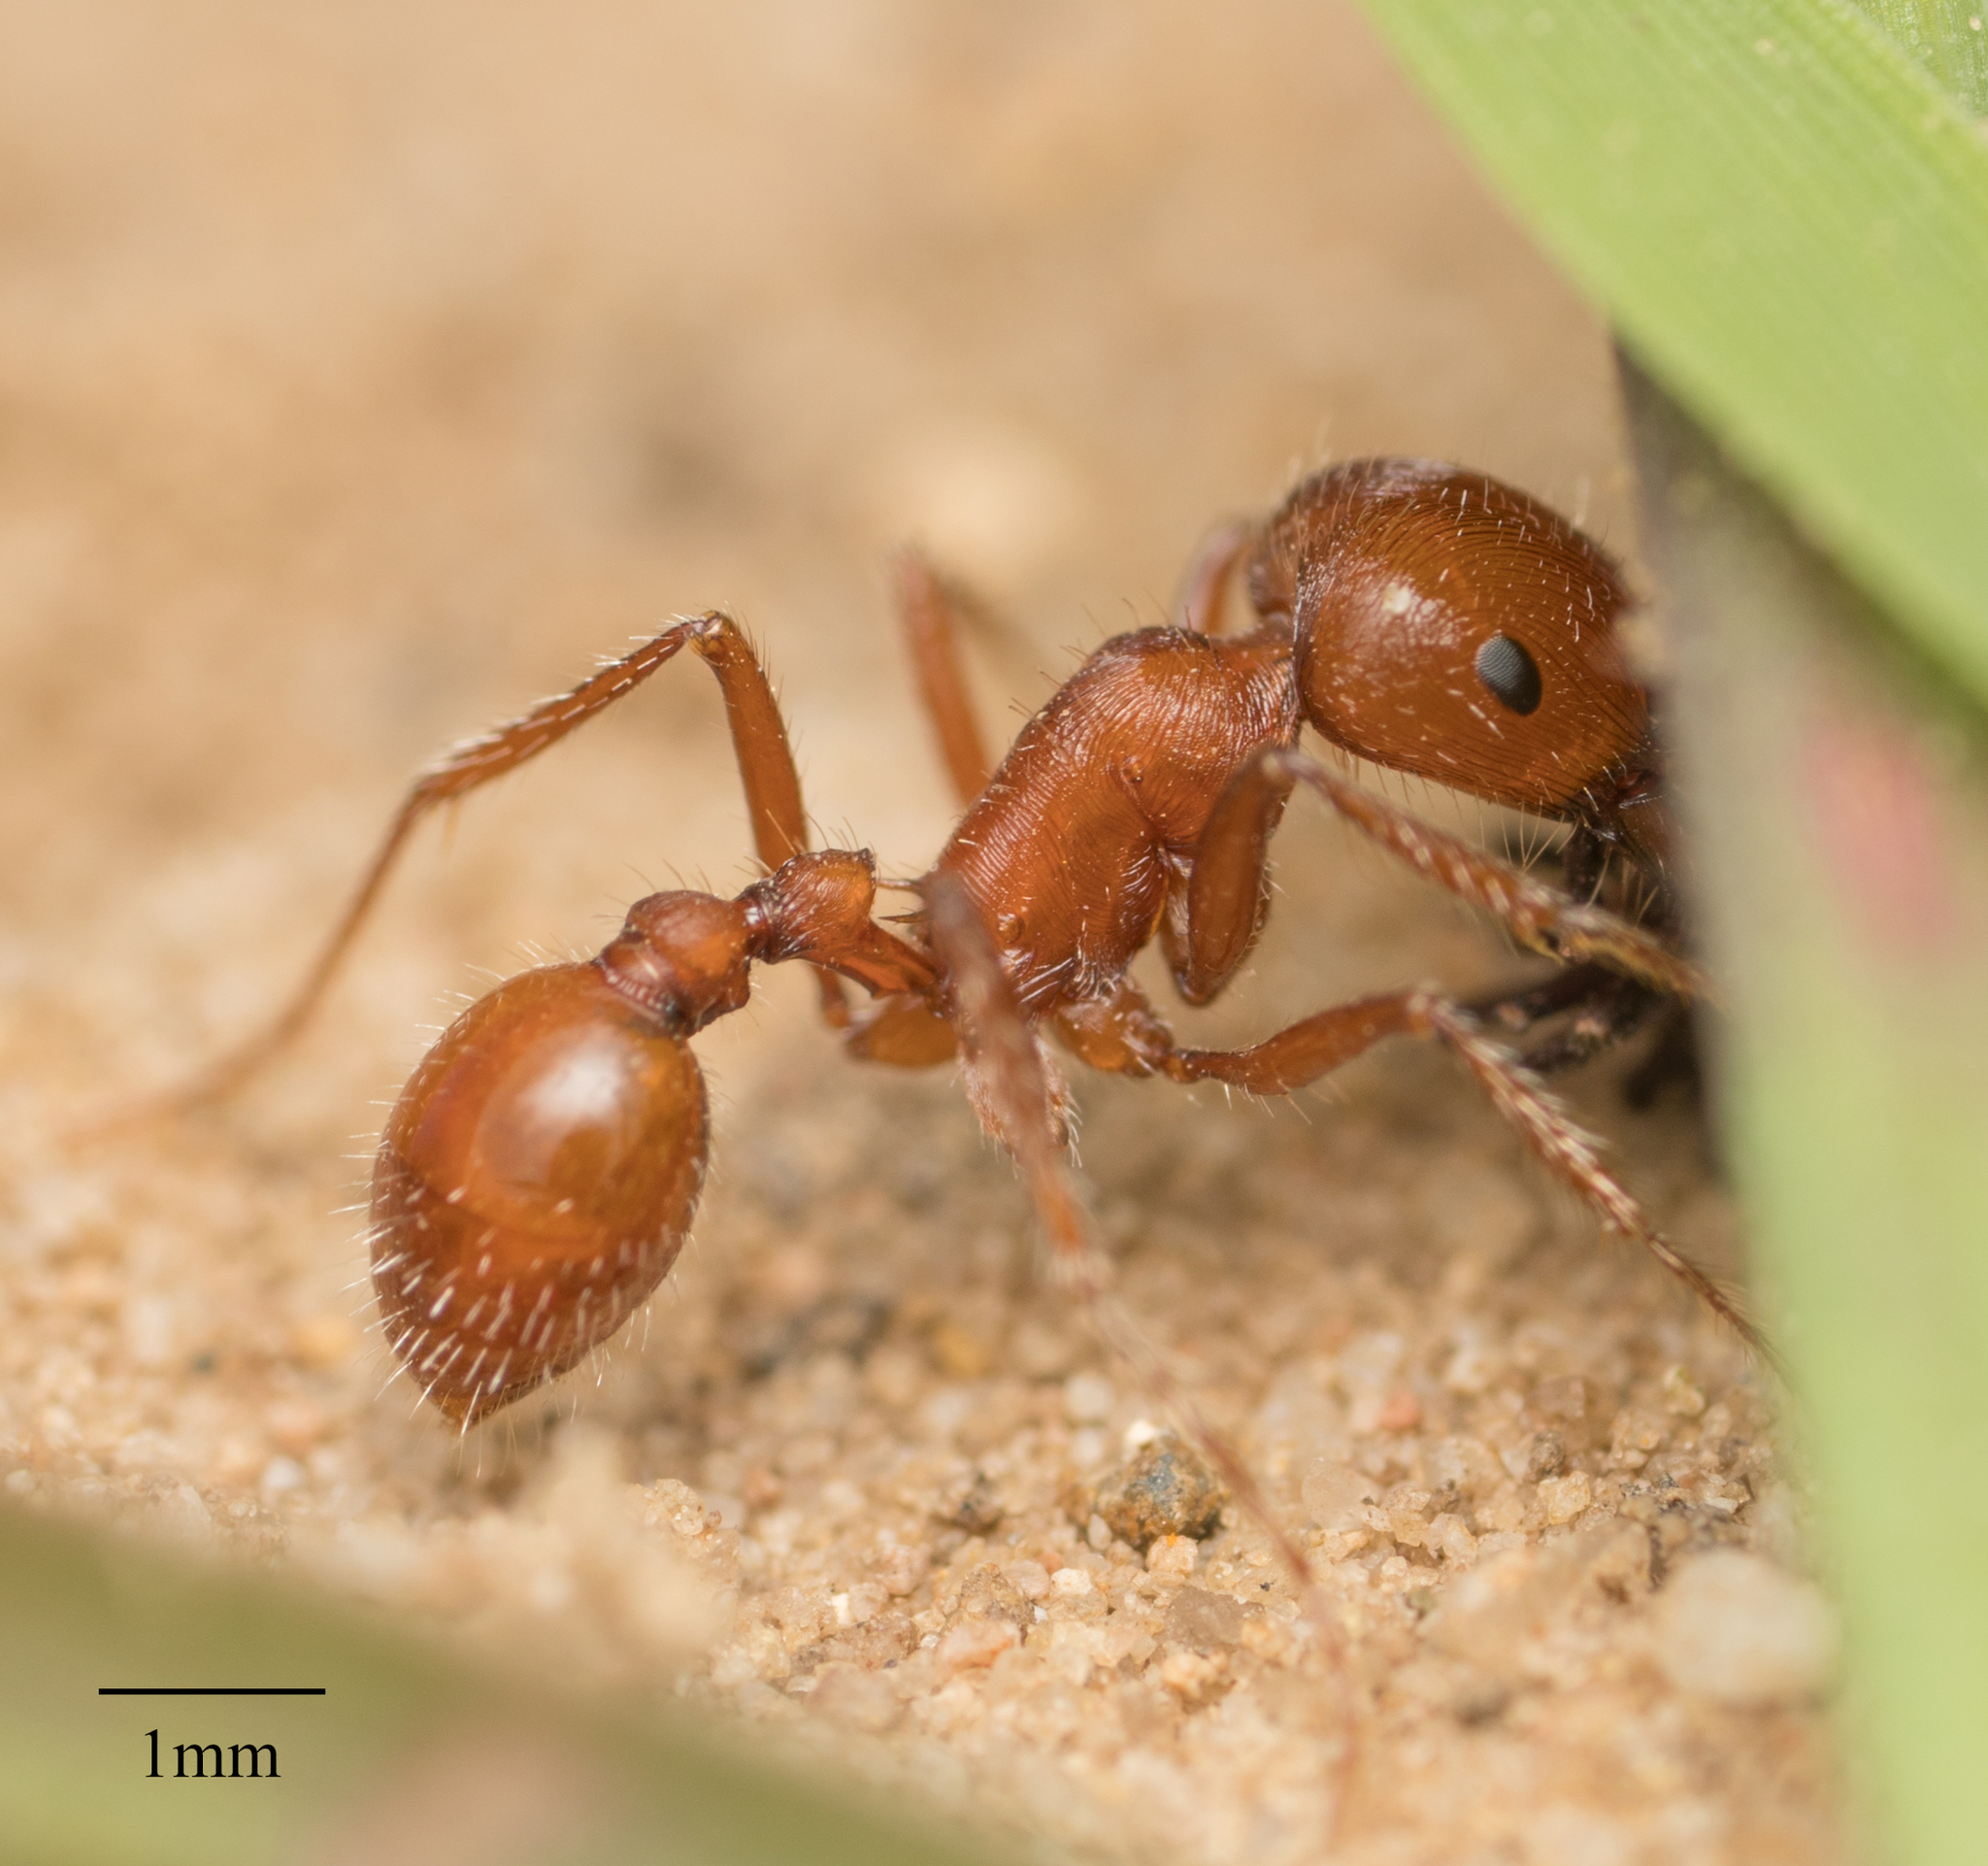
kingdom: Animalia
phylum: Arthropoda
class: Insecta
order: Hymenoptera
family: Formicidae
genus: Pogonomyrmex
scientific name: Pogonomyrmex subnitidus
